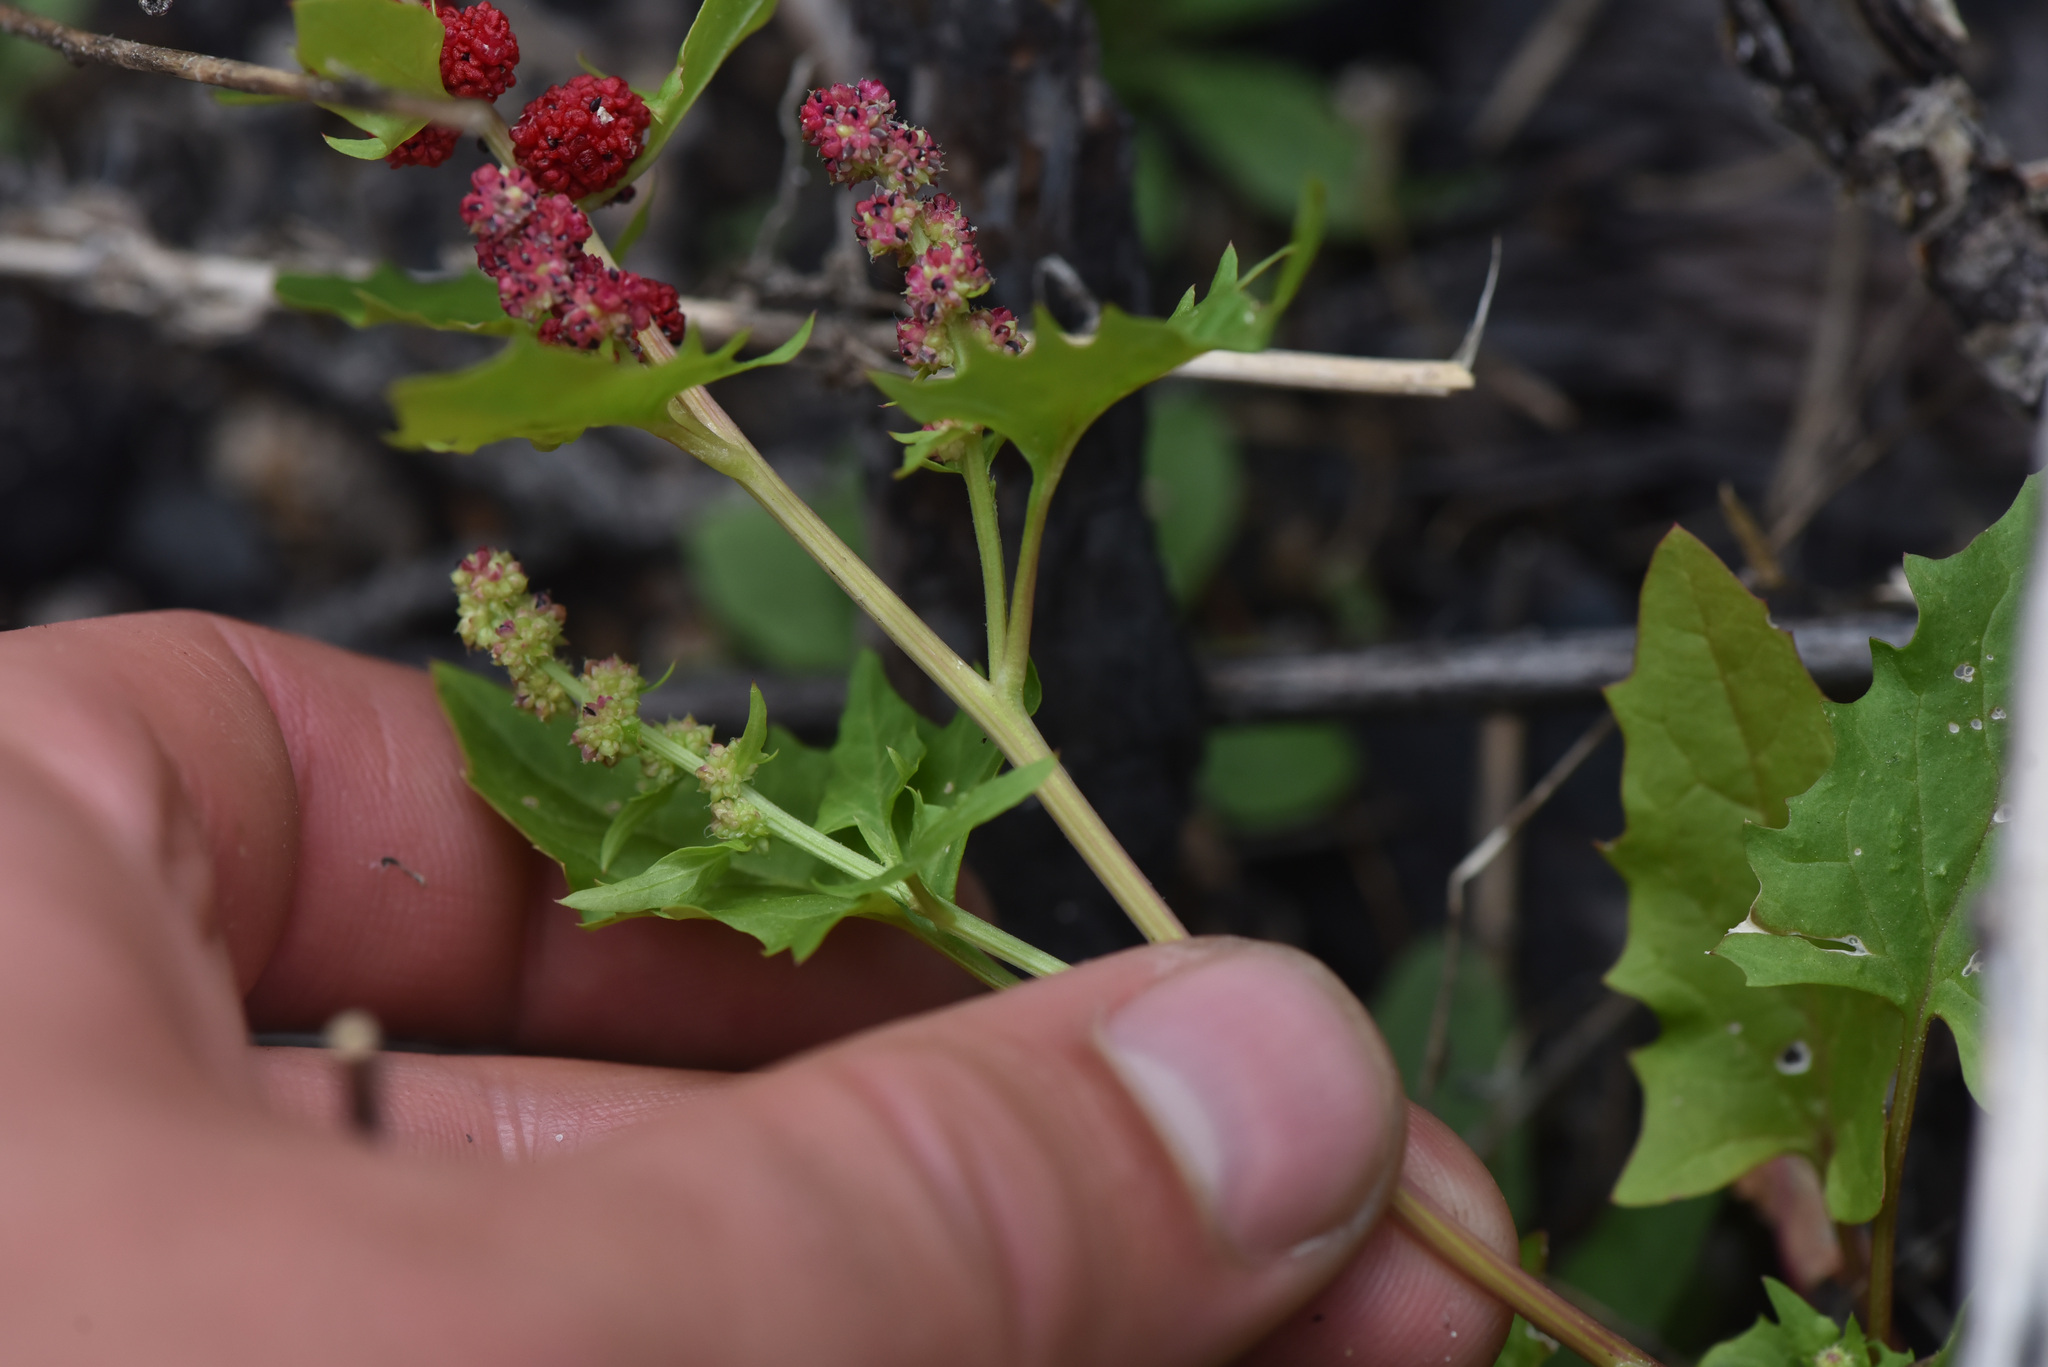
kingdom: Plantae
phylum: Tracheophyta
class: Magnoliopsida
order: Caryophyllales
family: Amaranthaceae
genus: Blitum
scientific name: Blitum capitatum
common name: Strawberry-blight
